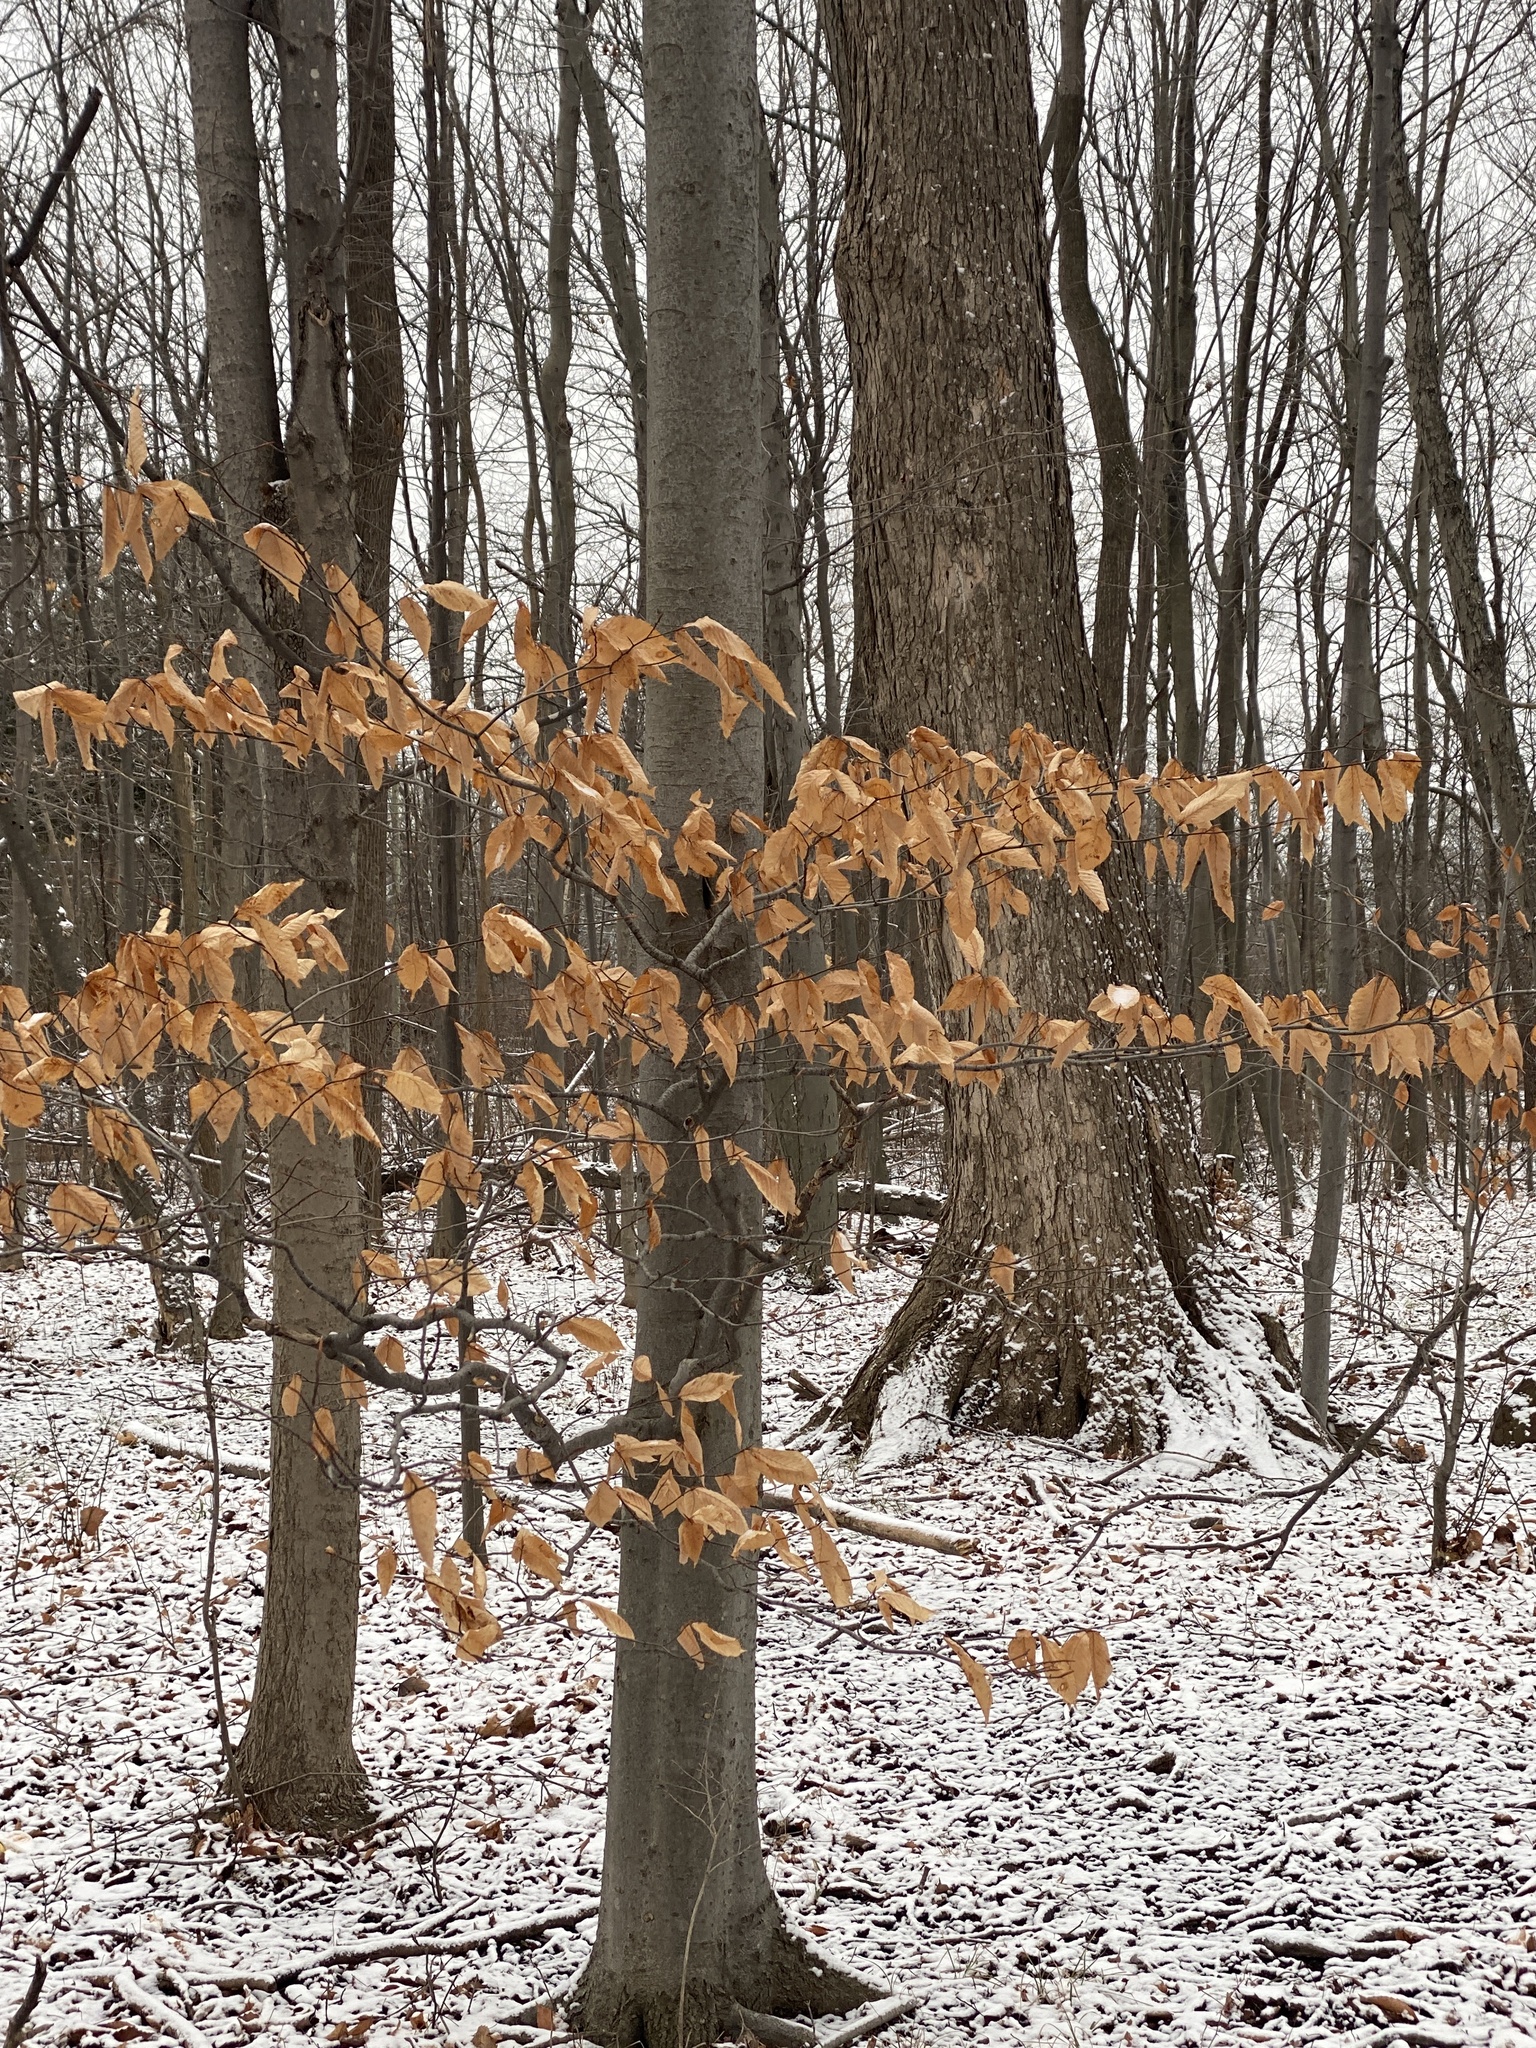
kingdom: Plantae
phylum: Tracheophyta
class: Magnoliopsida
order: Fagales
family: Fagaceae
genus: Fagus
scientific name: Fagus grandifolia
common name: American beech
